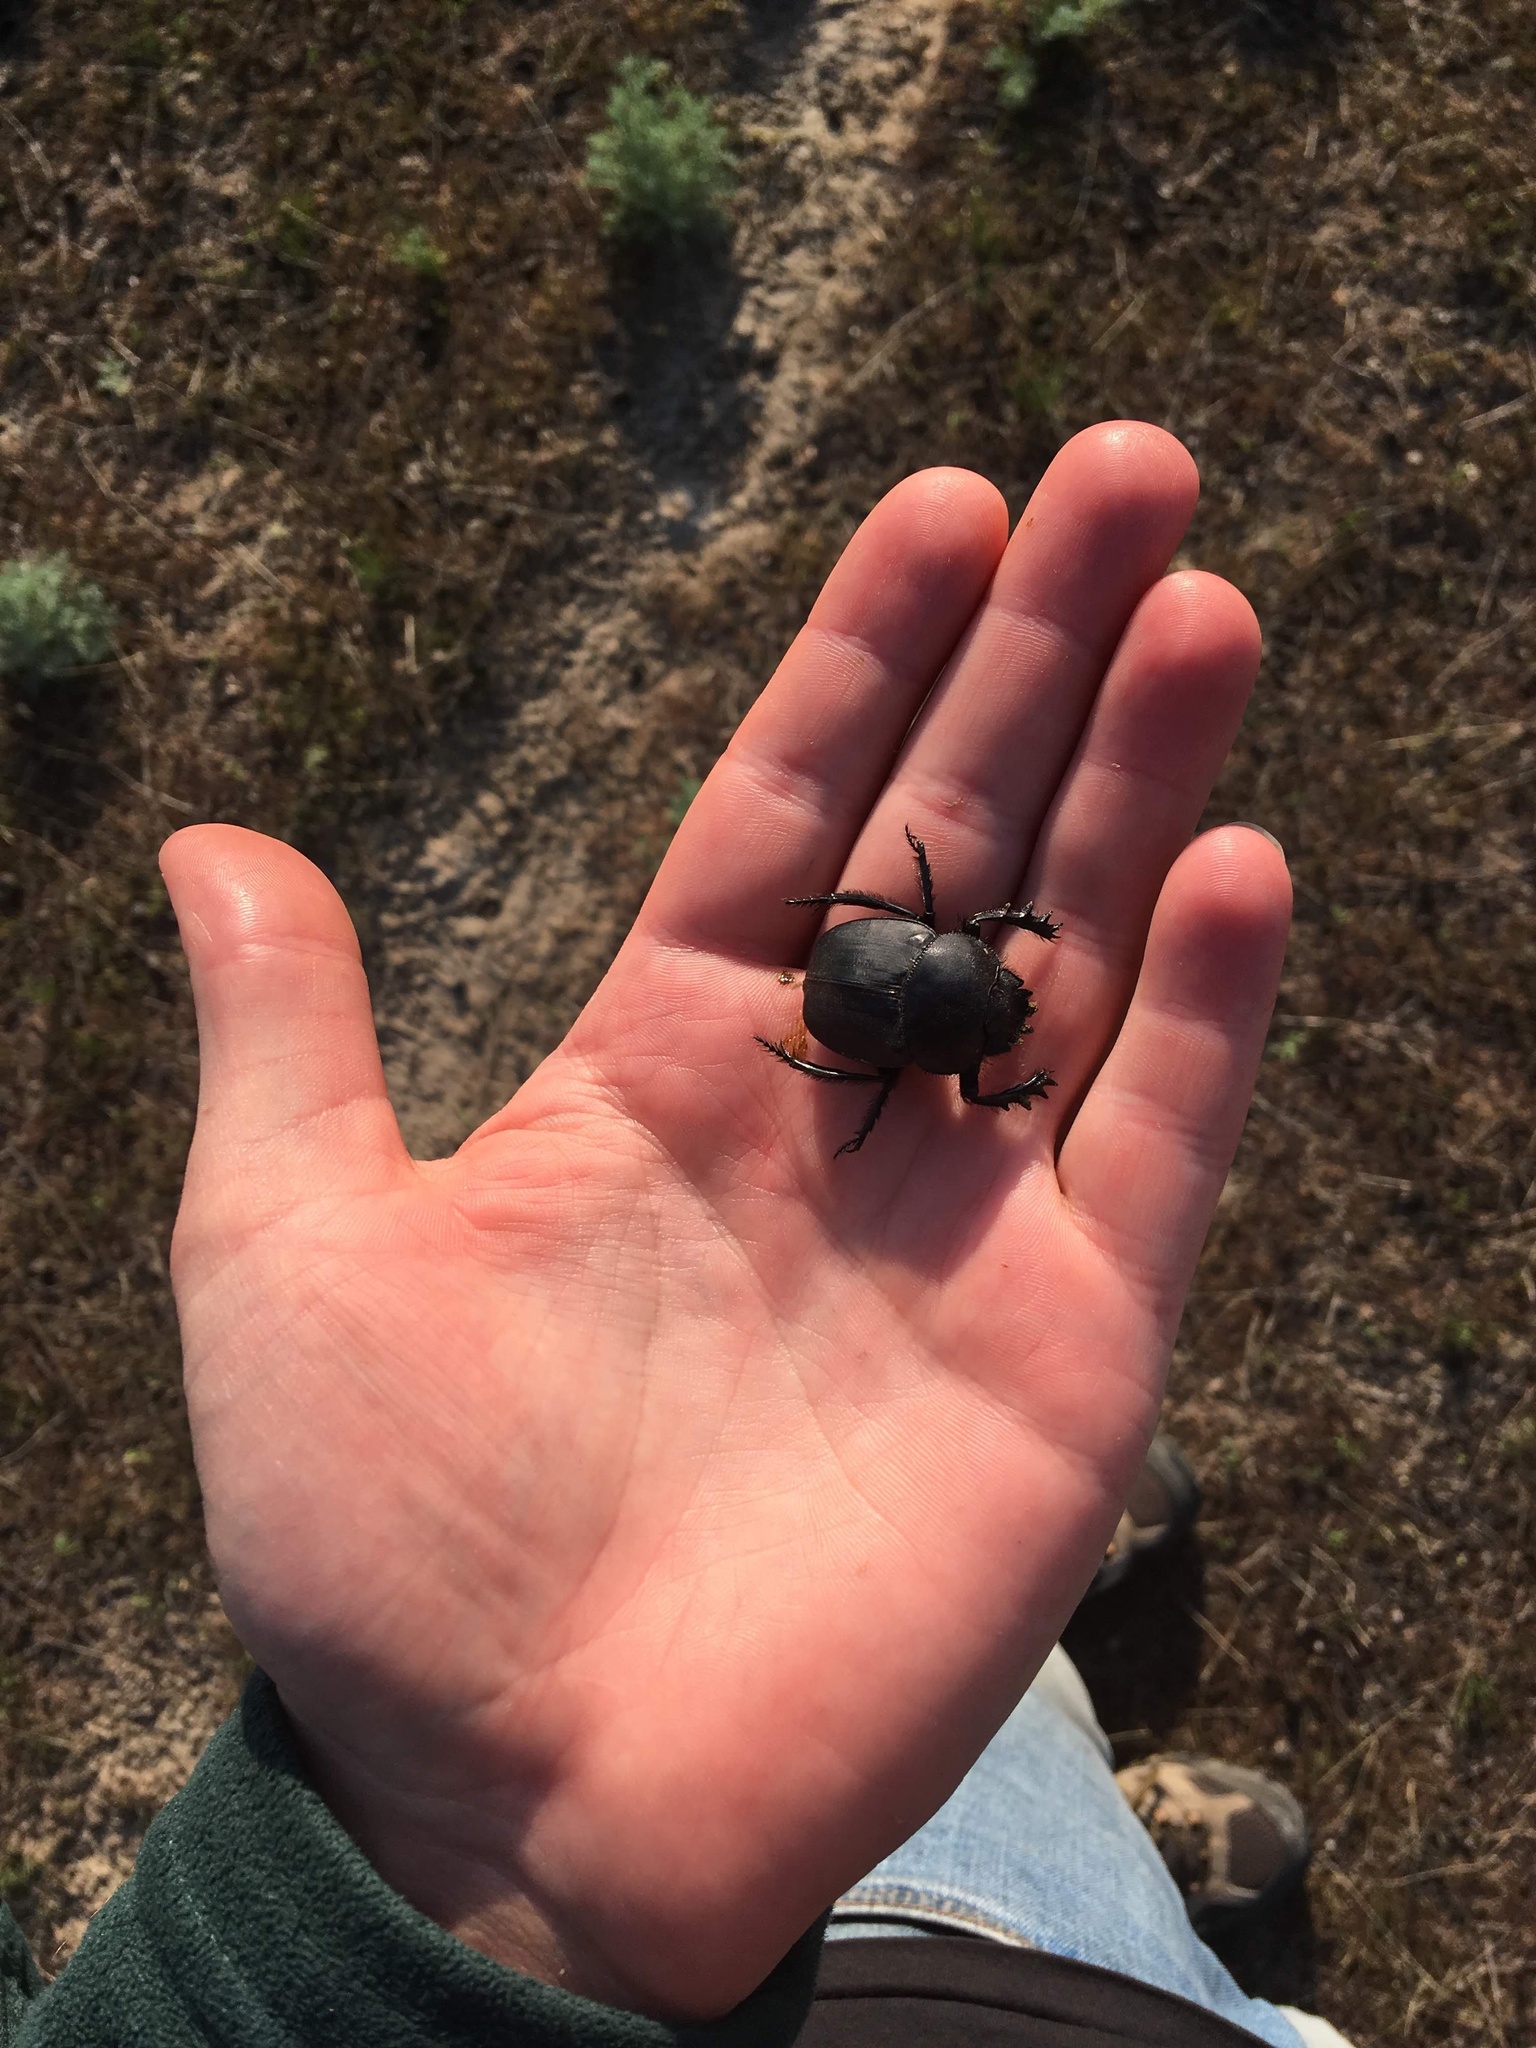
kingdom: Animalia
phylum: Arthropoda
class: Insecta
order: Coleoptera
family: Scarabaeidae
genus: Scarabaeus
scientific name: Scarabaeus pius
